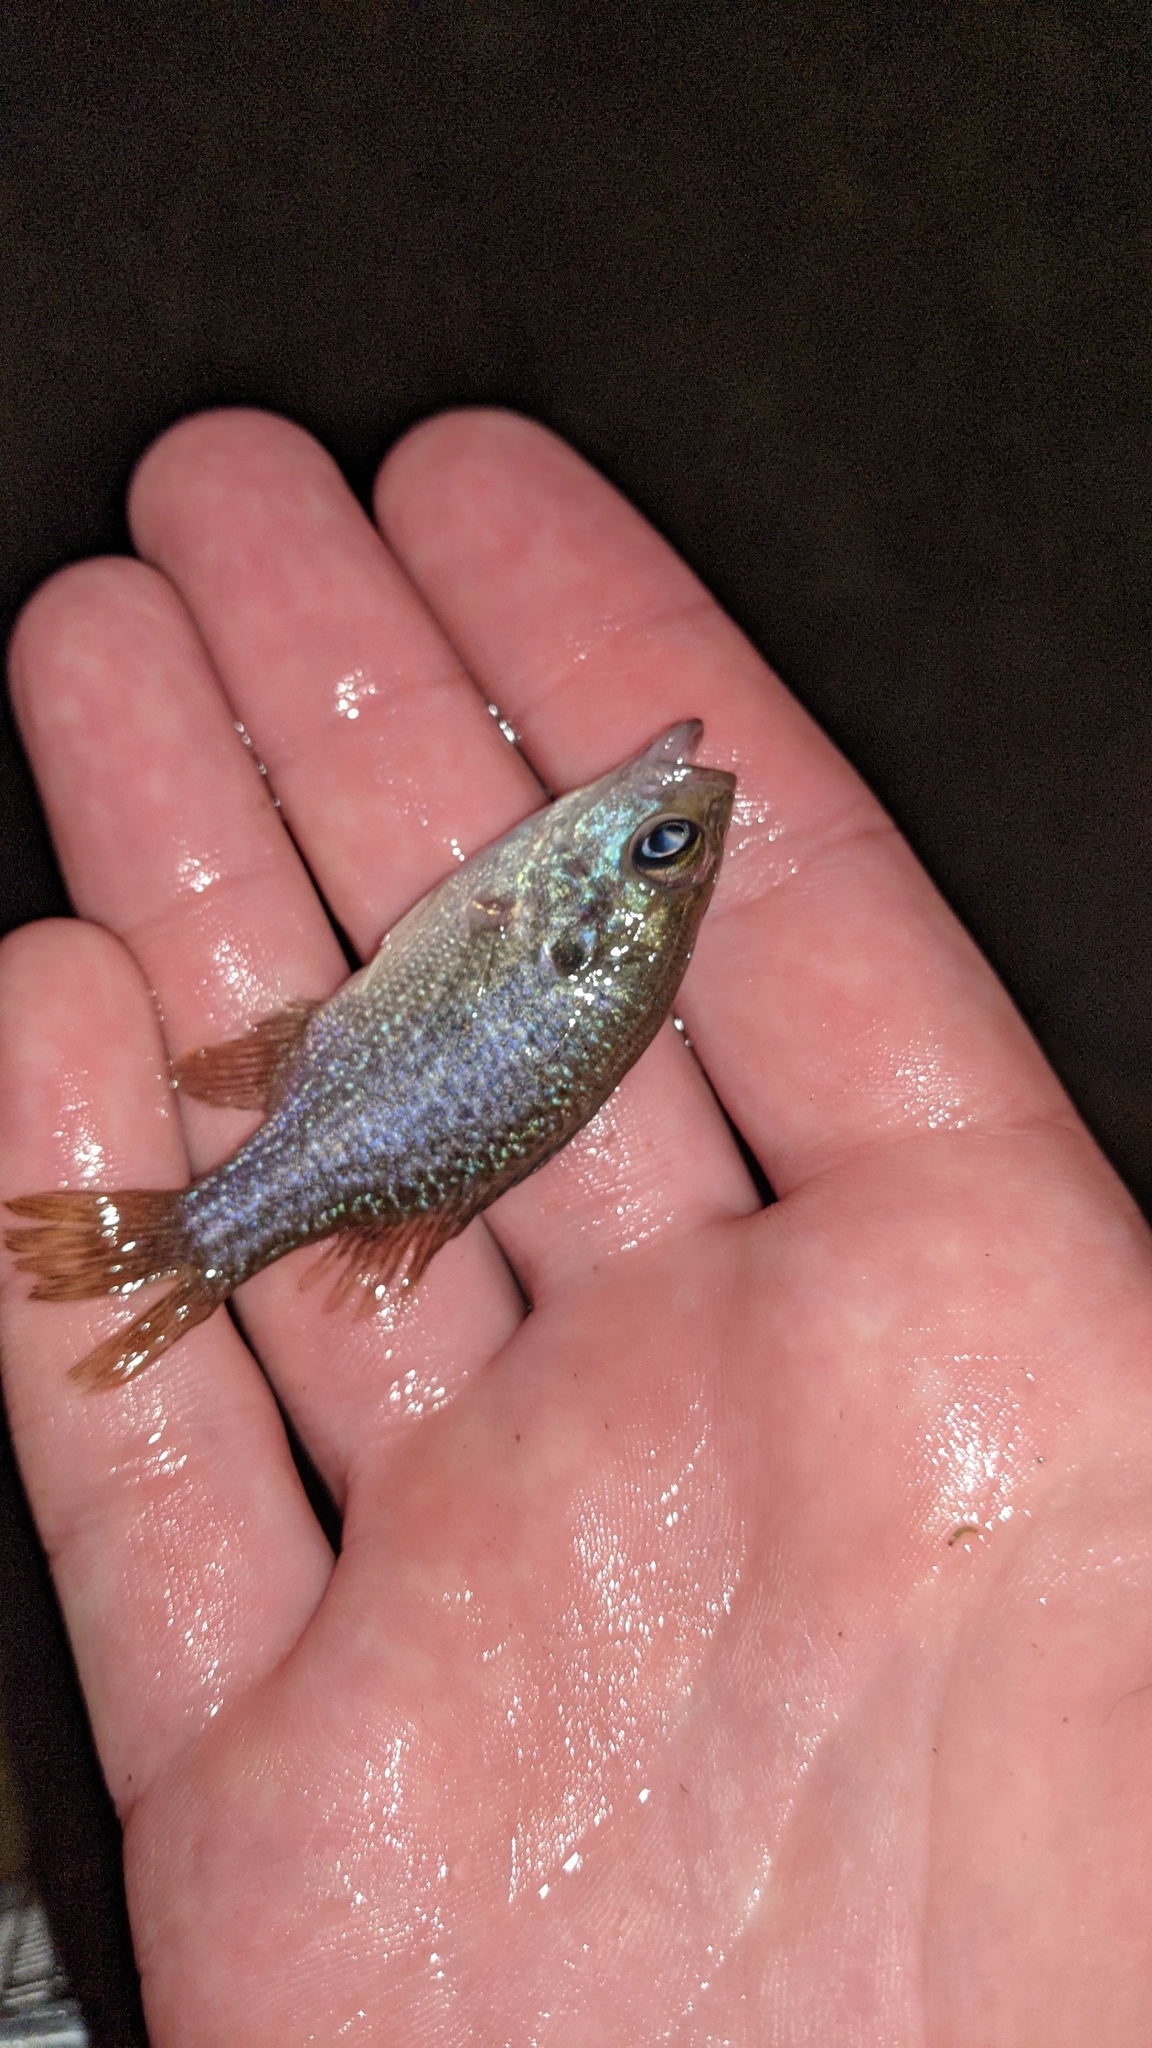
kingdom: Animalia
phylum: Chordata
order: Perciformes
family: Centrarchidae
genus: Lepomis
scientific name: Lepomis cyanellus
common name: Green sunfish
